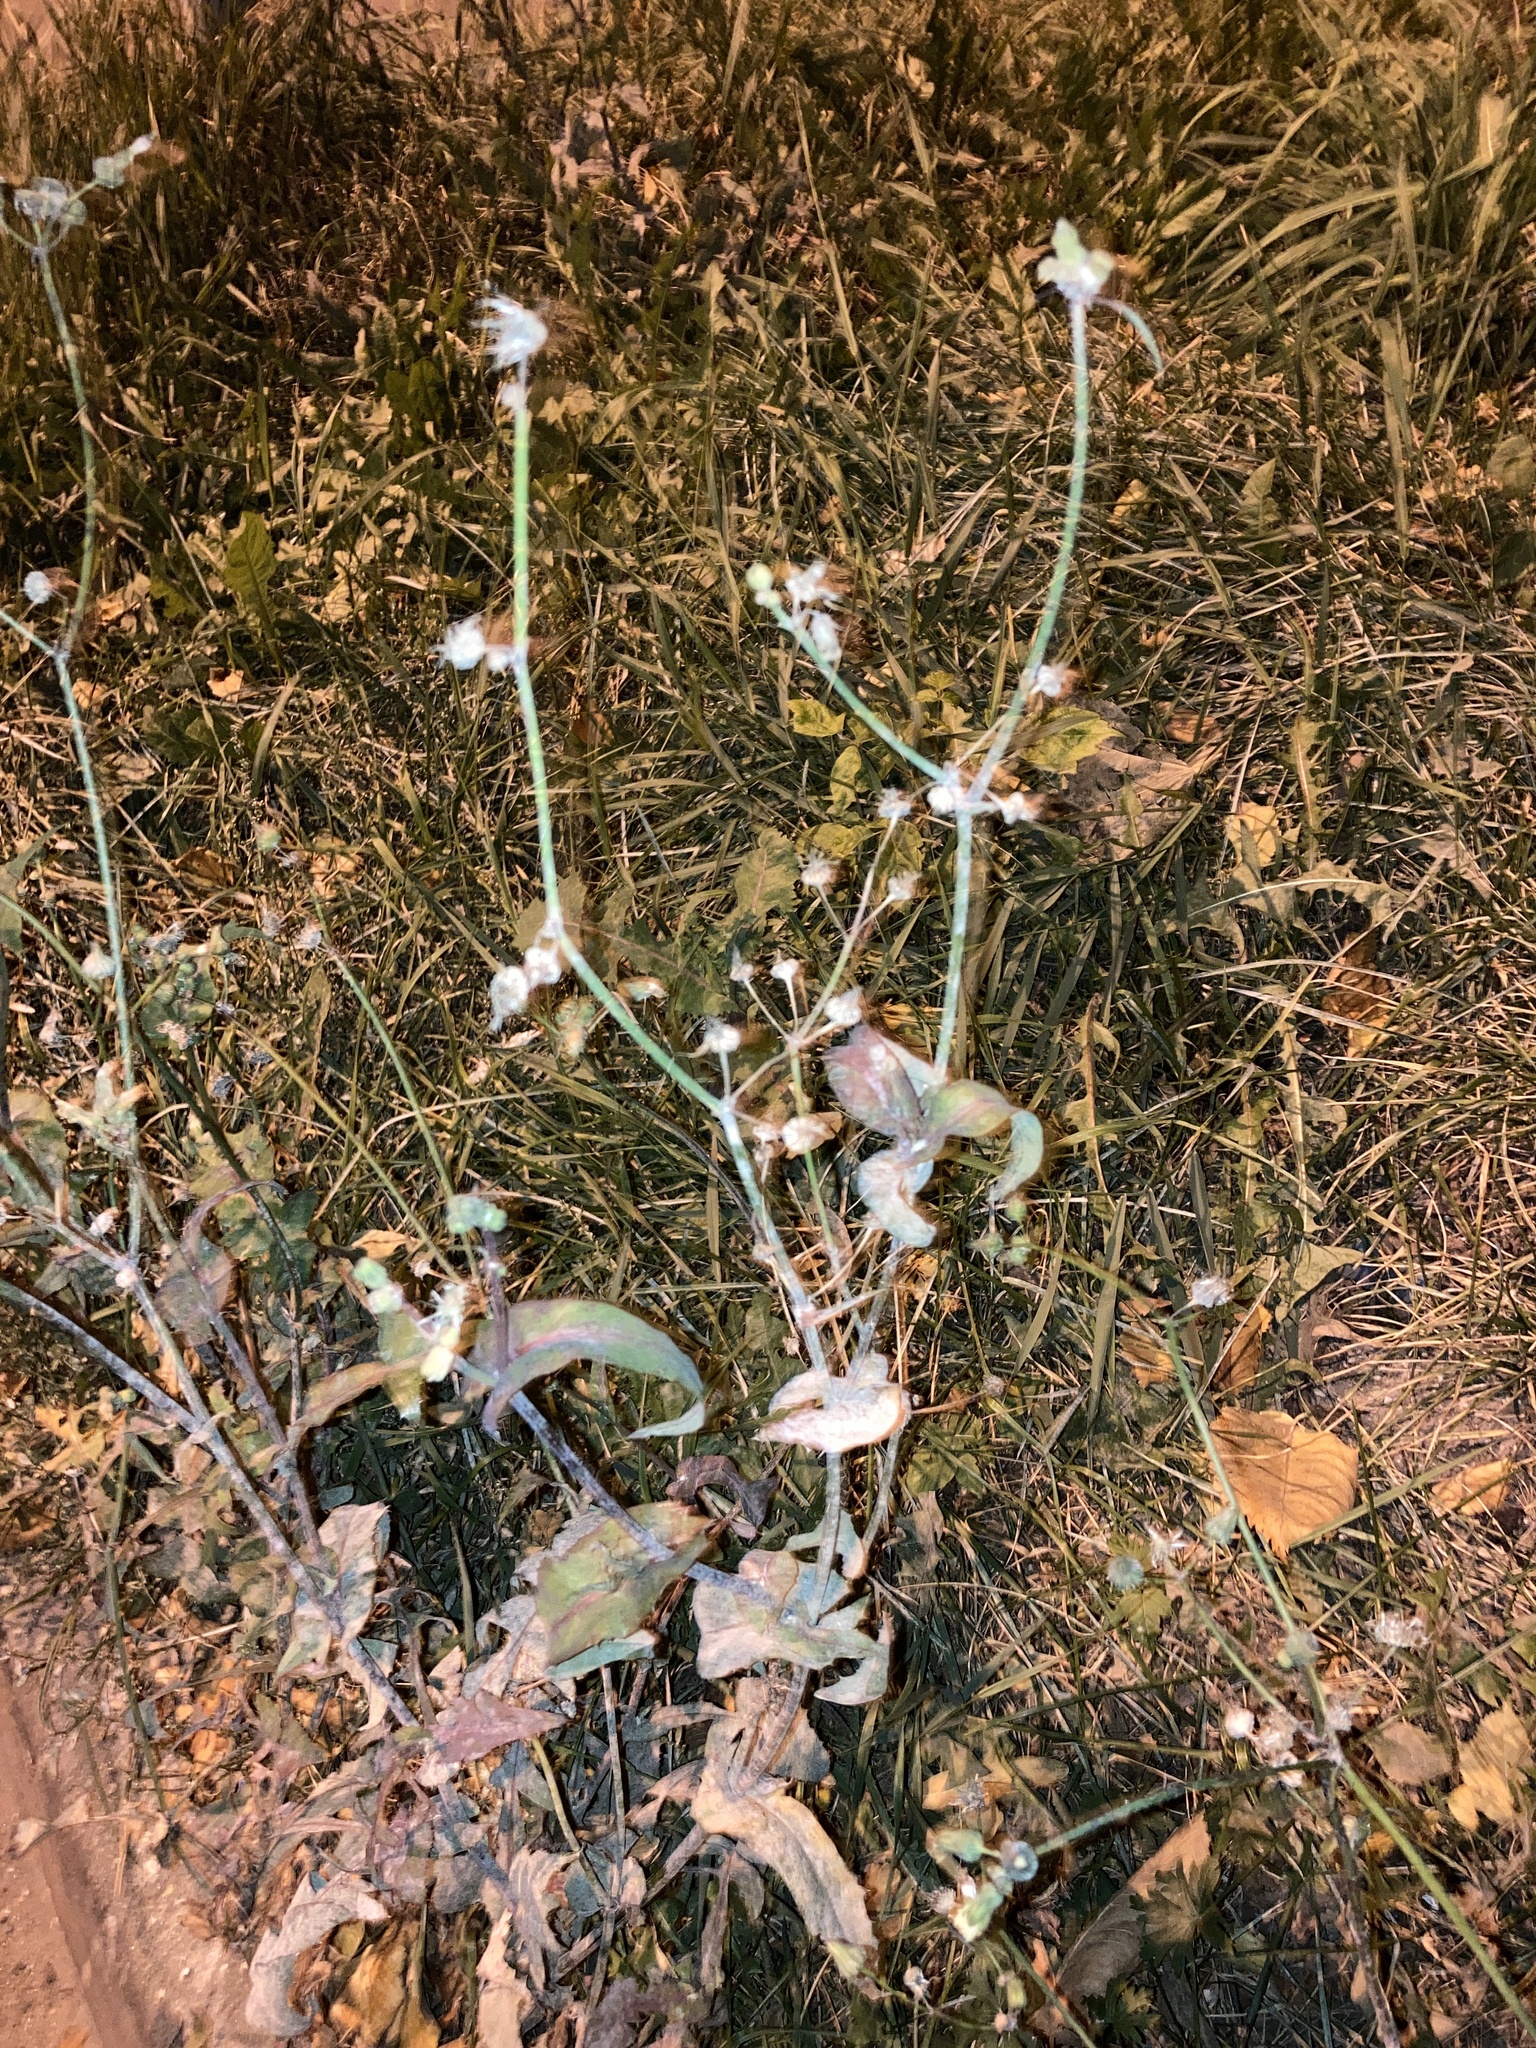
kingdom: Plantae
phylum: Tracheophyta
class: Magnoliopsida
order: Asterales
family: Asteraceae
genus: Sonchus
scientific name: Sonchus oleraceus
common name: Common sowthistle
